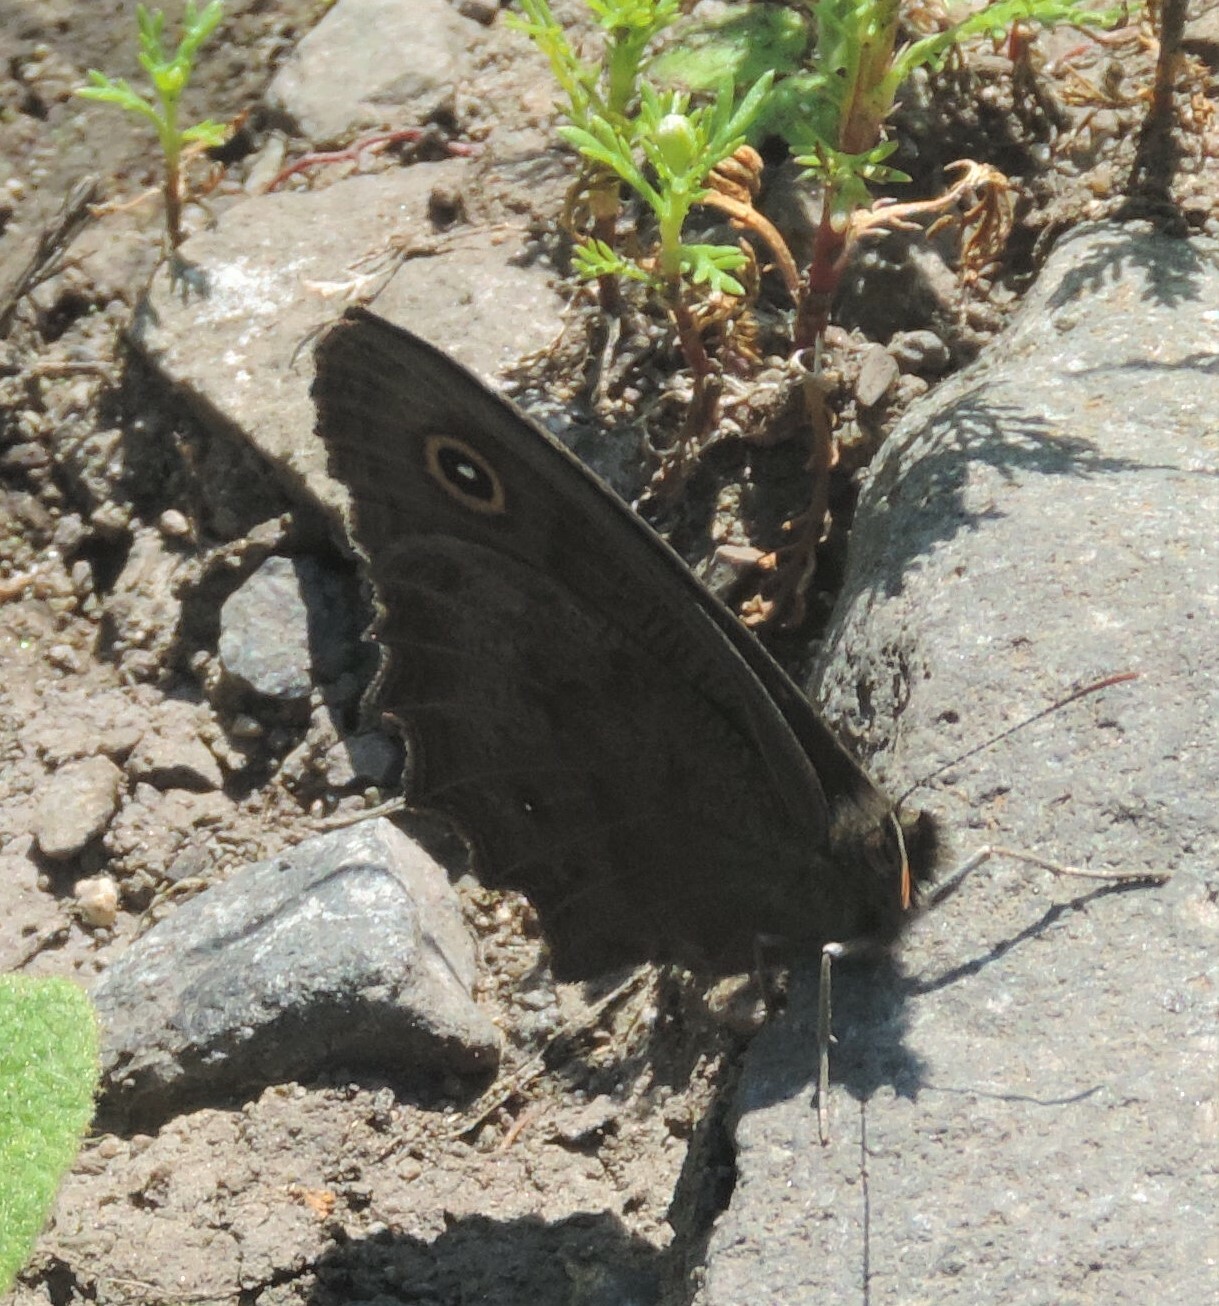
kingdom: Animalia
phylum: Arthropoda
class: Insecta
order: Lepidoptera
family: Nymphalidae
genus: Cercyonis
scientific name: Cercyonis pegala
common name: Common wood-nymph
